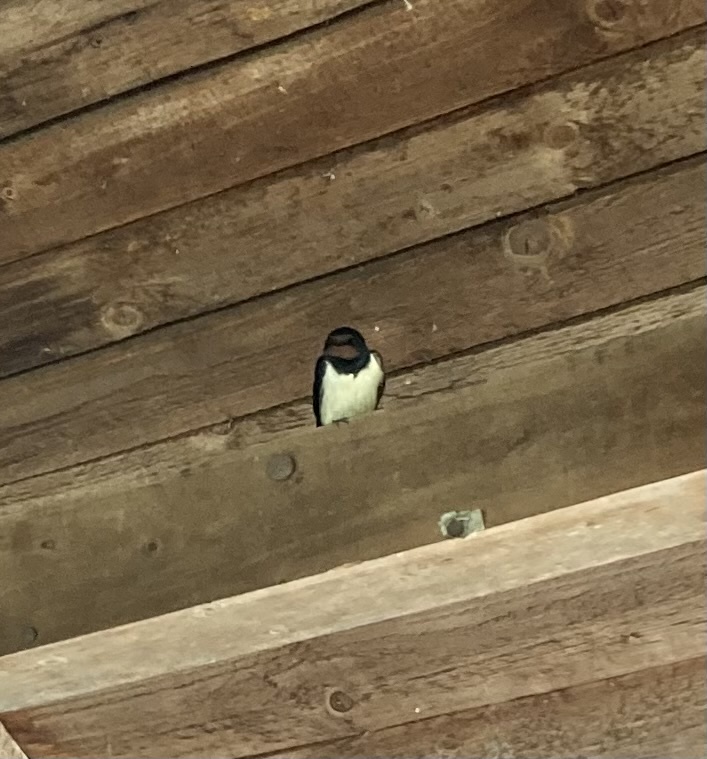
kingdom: Animalia
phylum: Chordata
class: Aves
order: Passeriformes
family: Hirundinidae
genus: Hirundo
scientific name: Hirundo rustica
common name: Barn swallow
